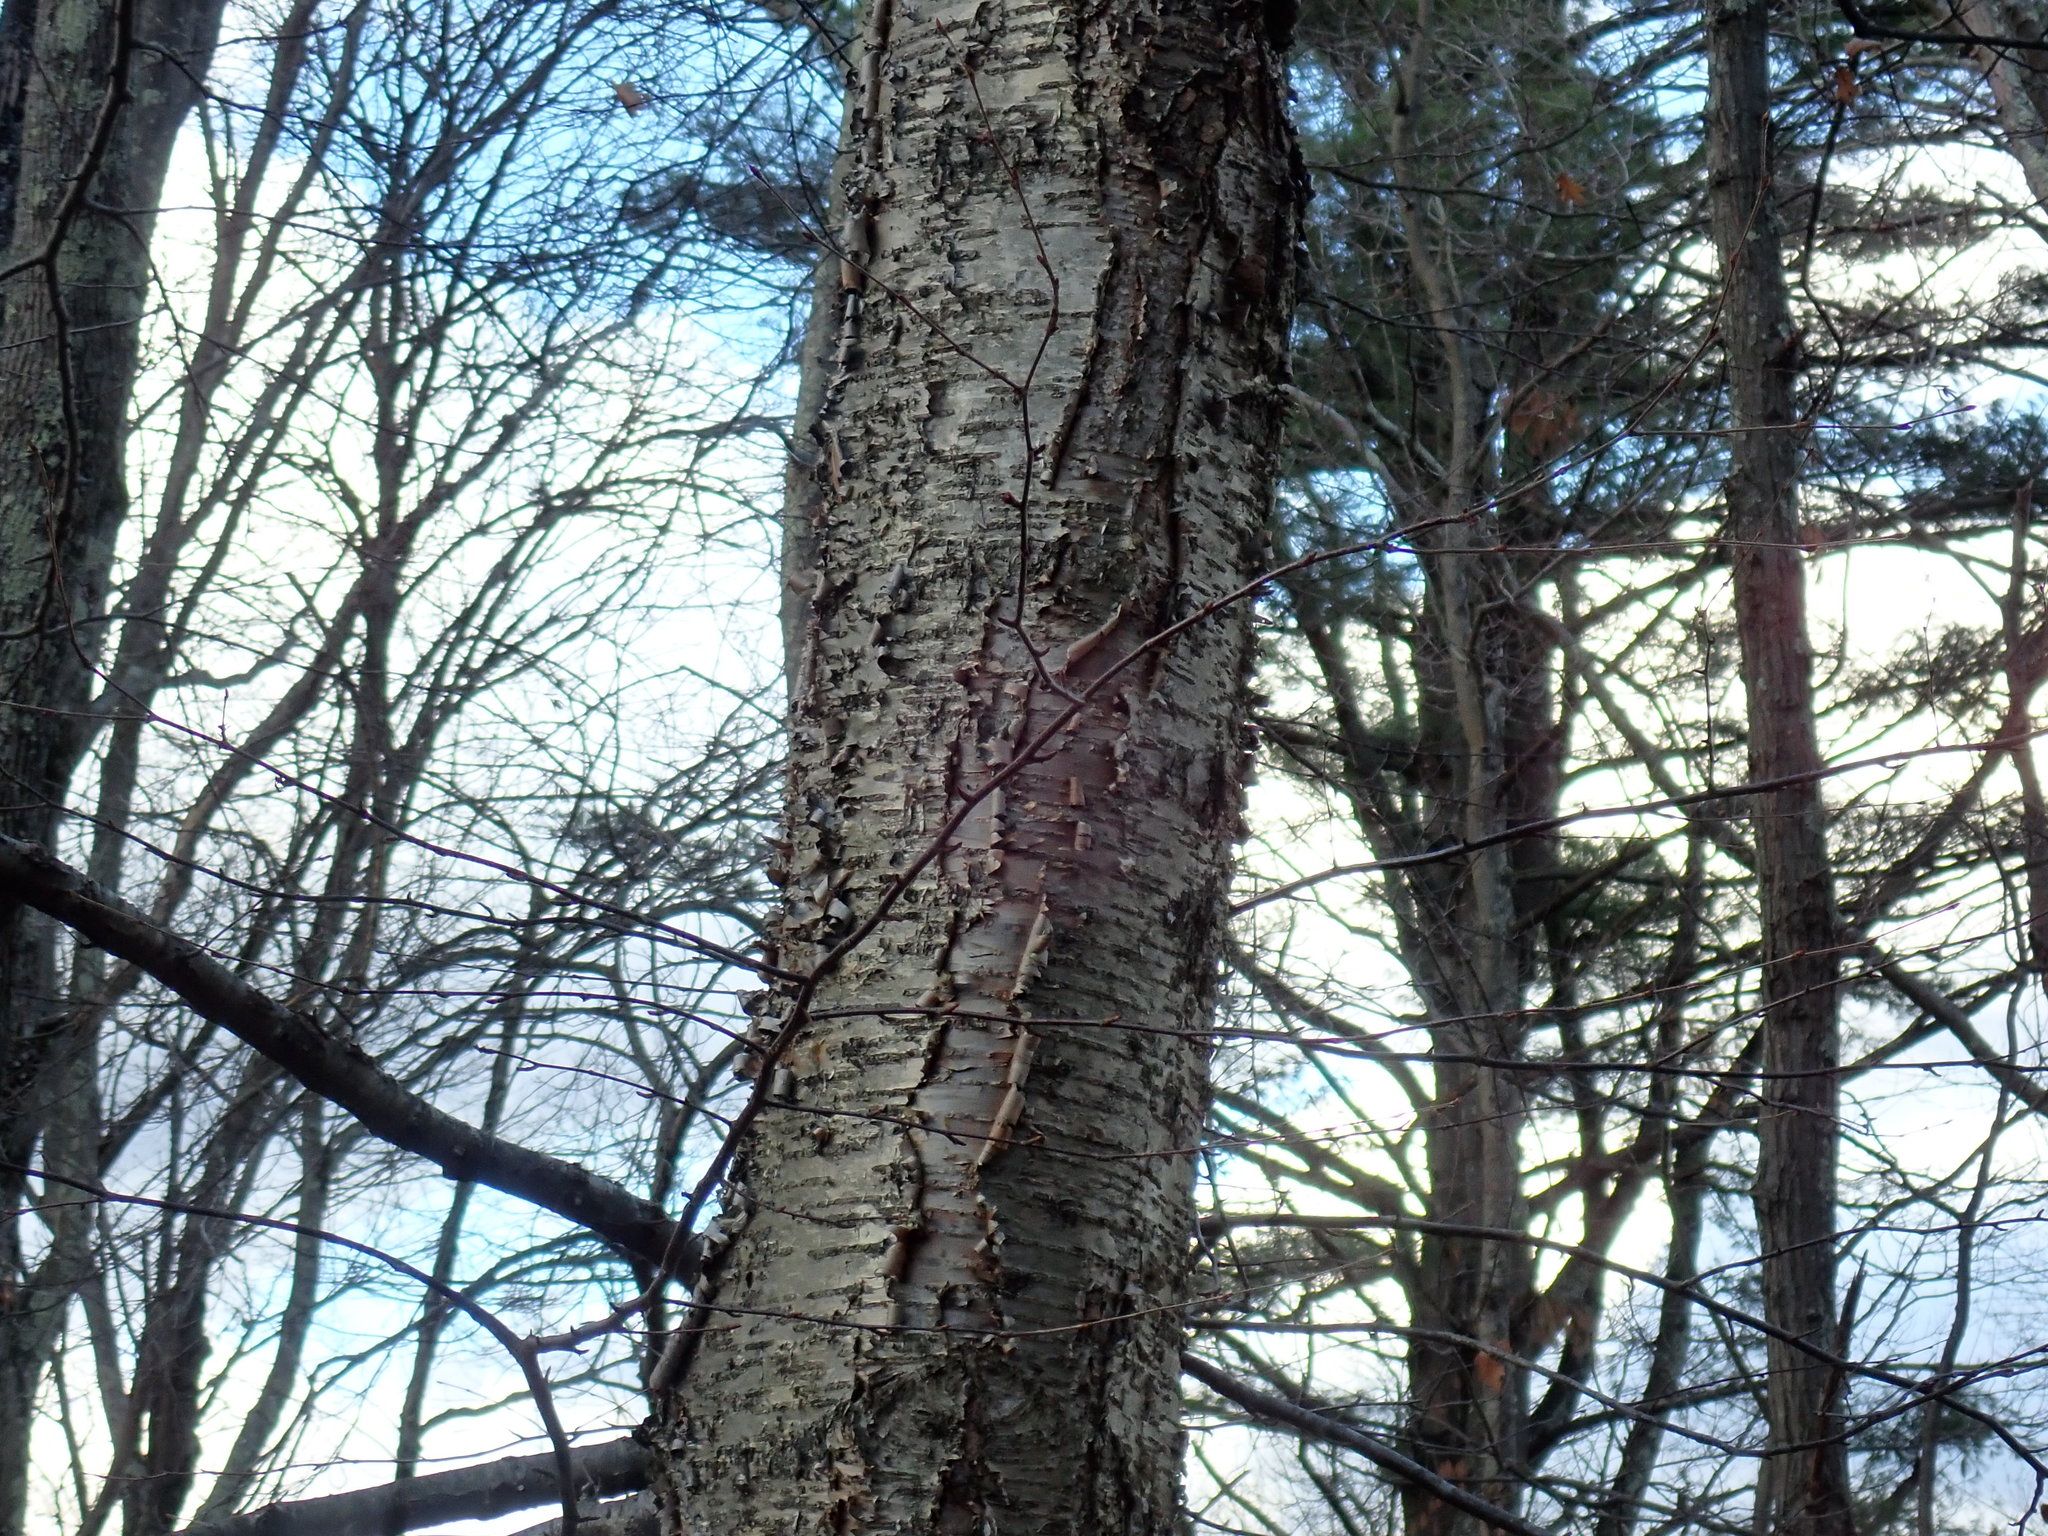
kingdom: Plantae
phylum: Tracheophyta
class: Magnoliopsida
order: Fagales
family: Betulaceae
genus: Betula
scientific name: Betula alleghaniensis
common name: Yellow birch
